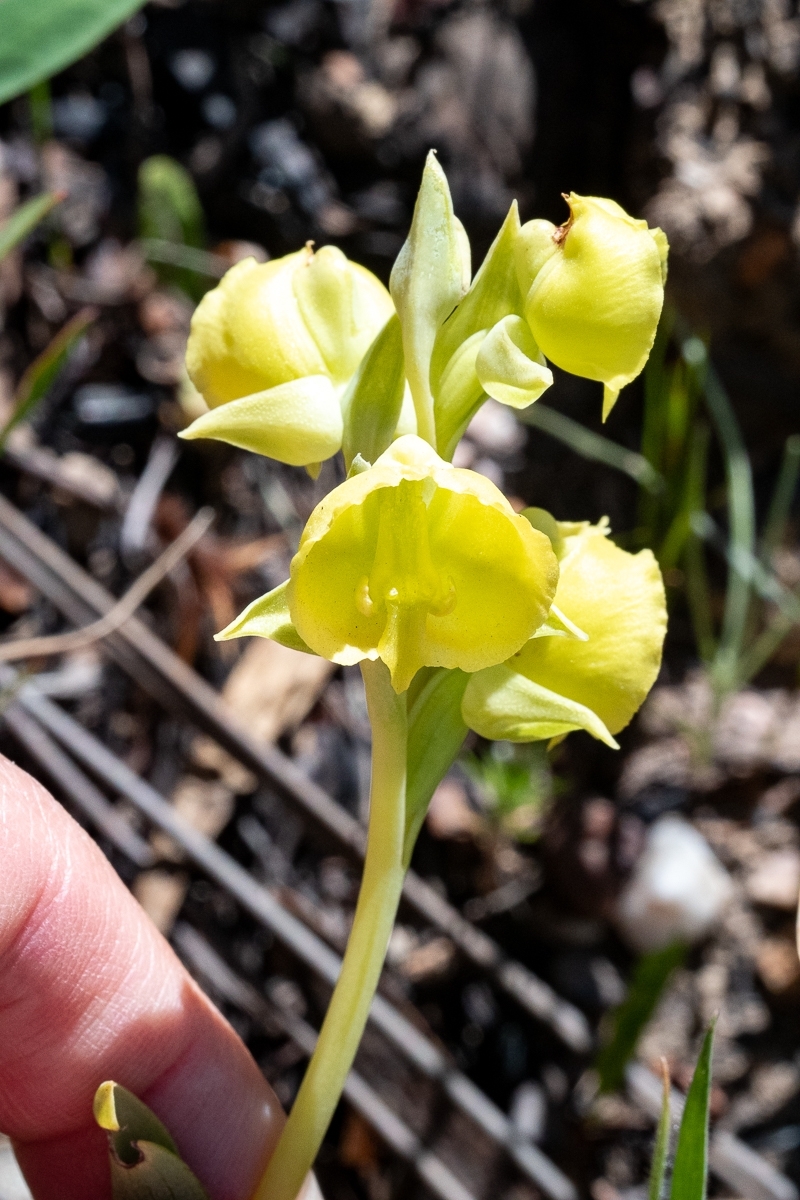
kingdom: Plantae
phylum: Tracheophyta
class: Liliopsida
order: Asparagales
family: Orchidaceae
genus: Pterygodium
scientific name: Pterygodium catholicum
